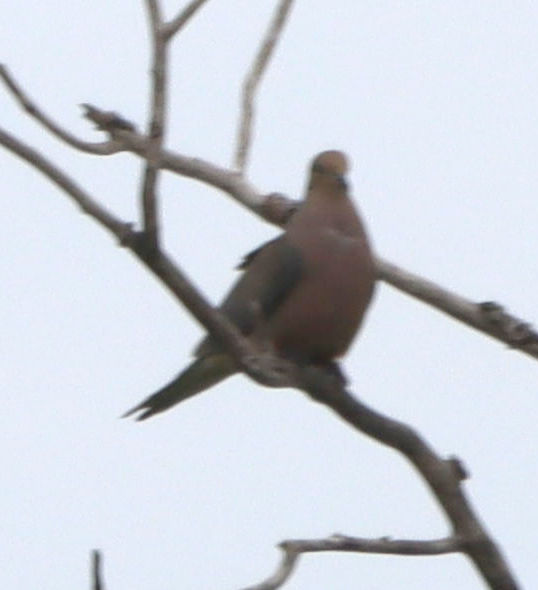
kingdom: Animalia
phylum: Chordata
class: Aves
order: Columbiformes
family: Columbidae
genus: Zenaida
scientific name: Zenaida macroura
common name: Mourning dove
